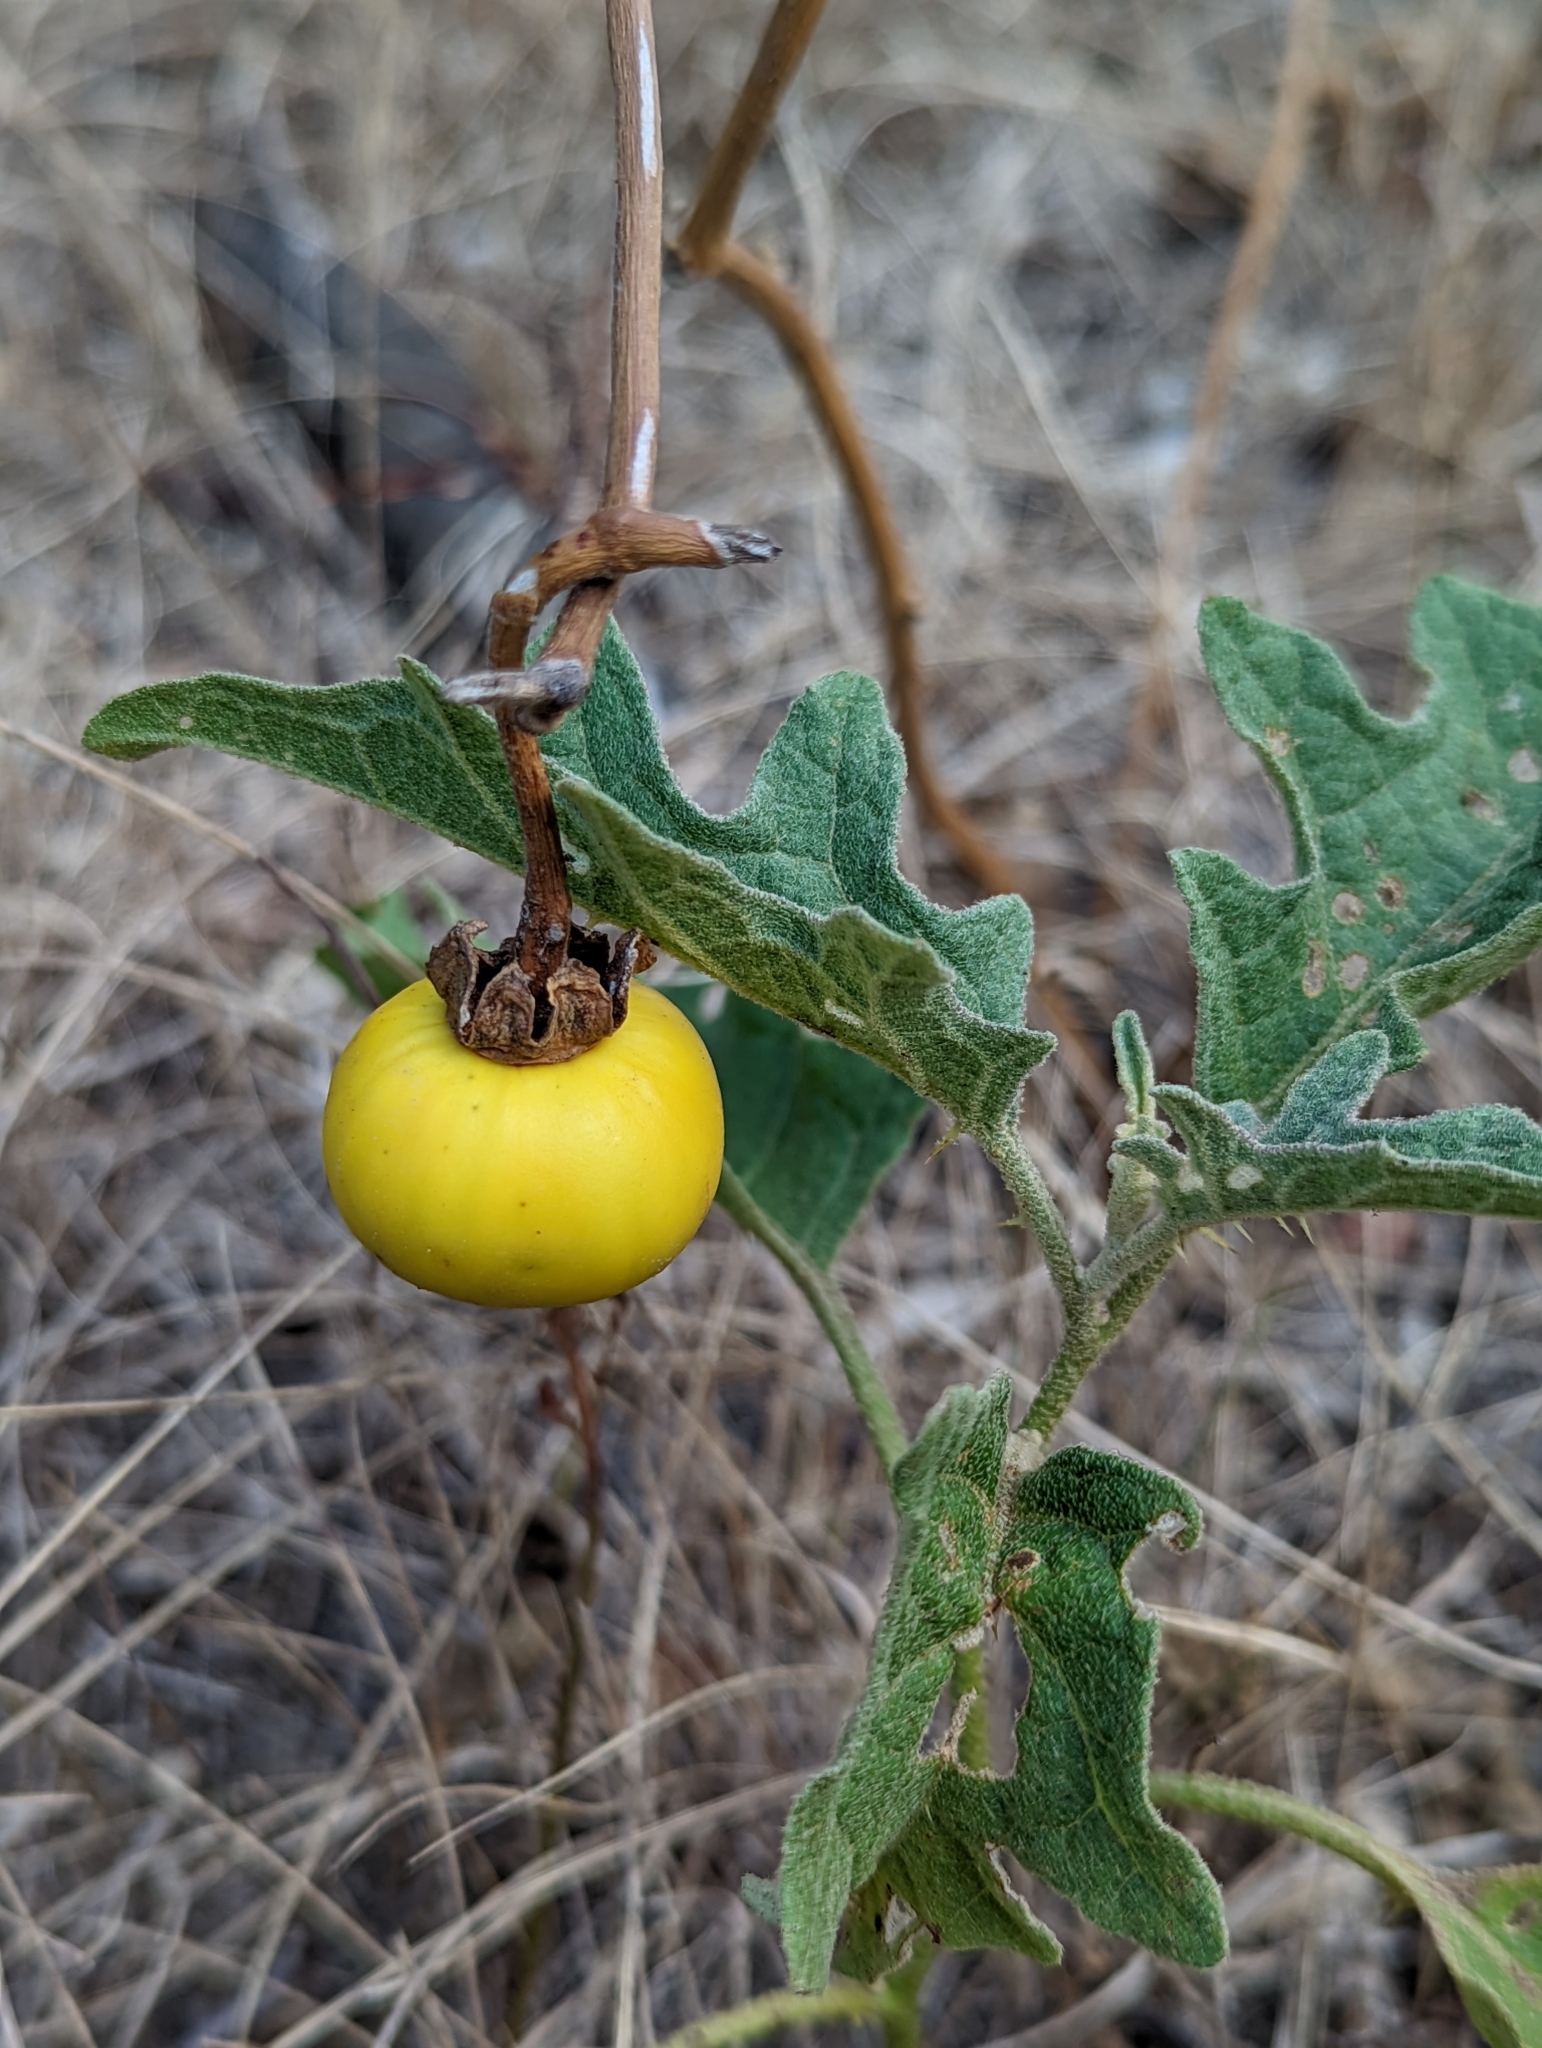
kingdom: Plantae
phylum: Tracheophyta
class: Magnoliopsida
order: Solanales
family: Solanaceae
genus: Solanum
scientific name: Solanum dimidiatum
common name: Carolina horse-nettle
